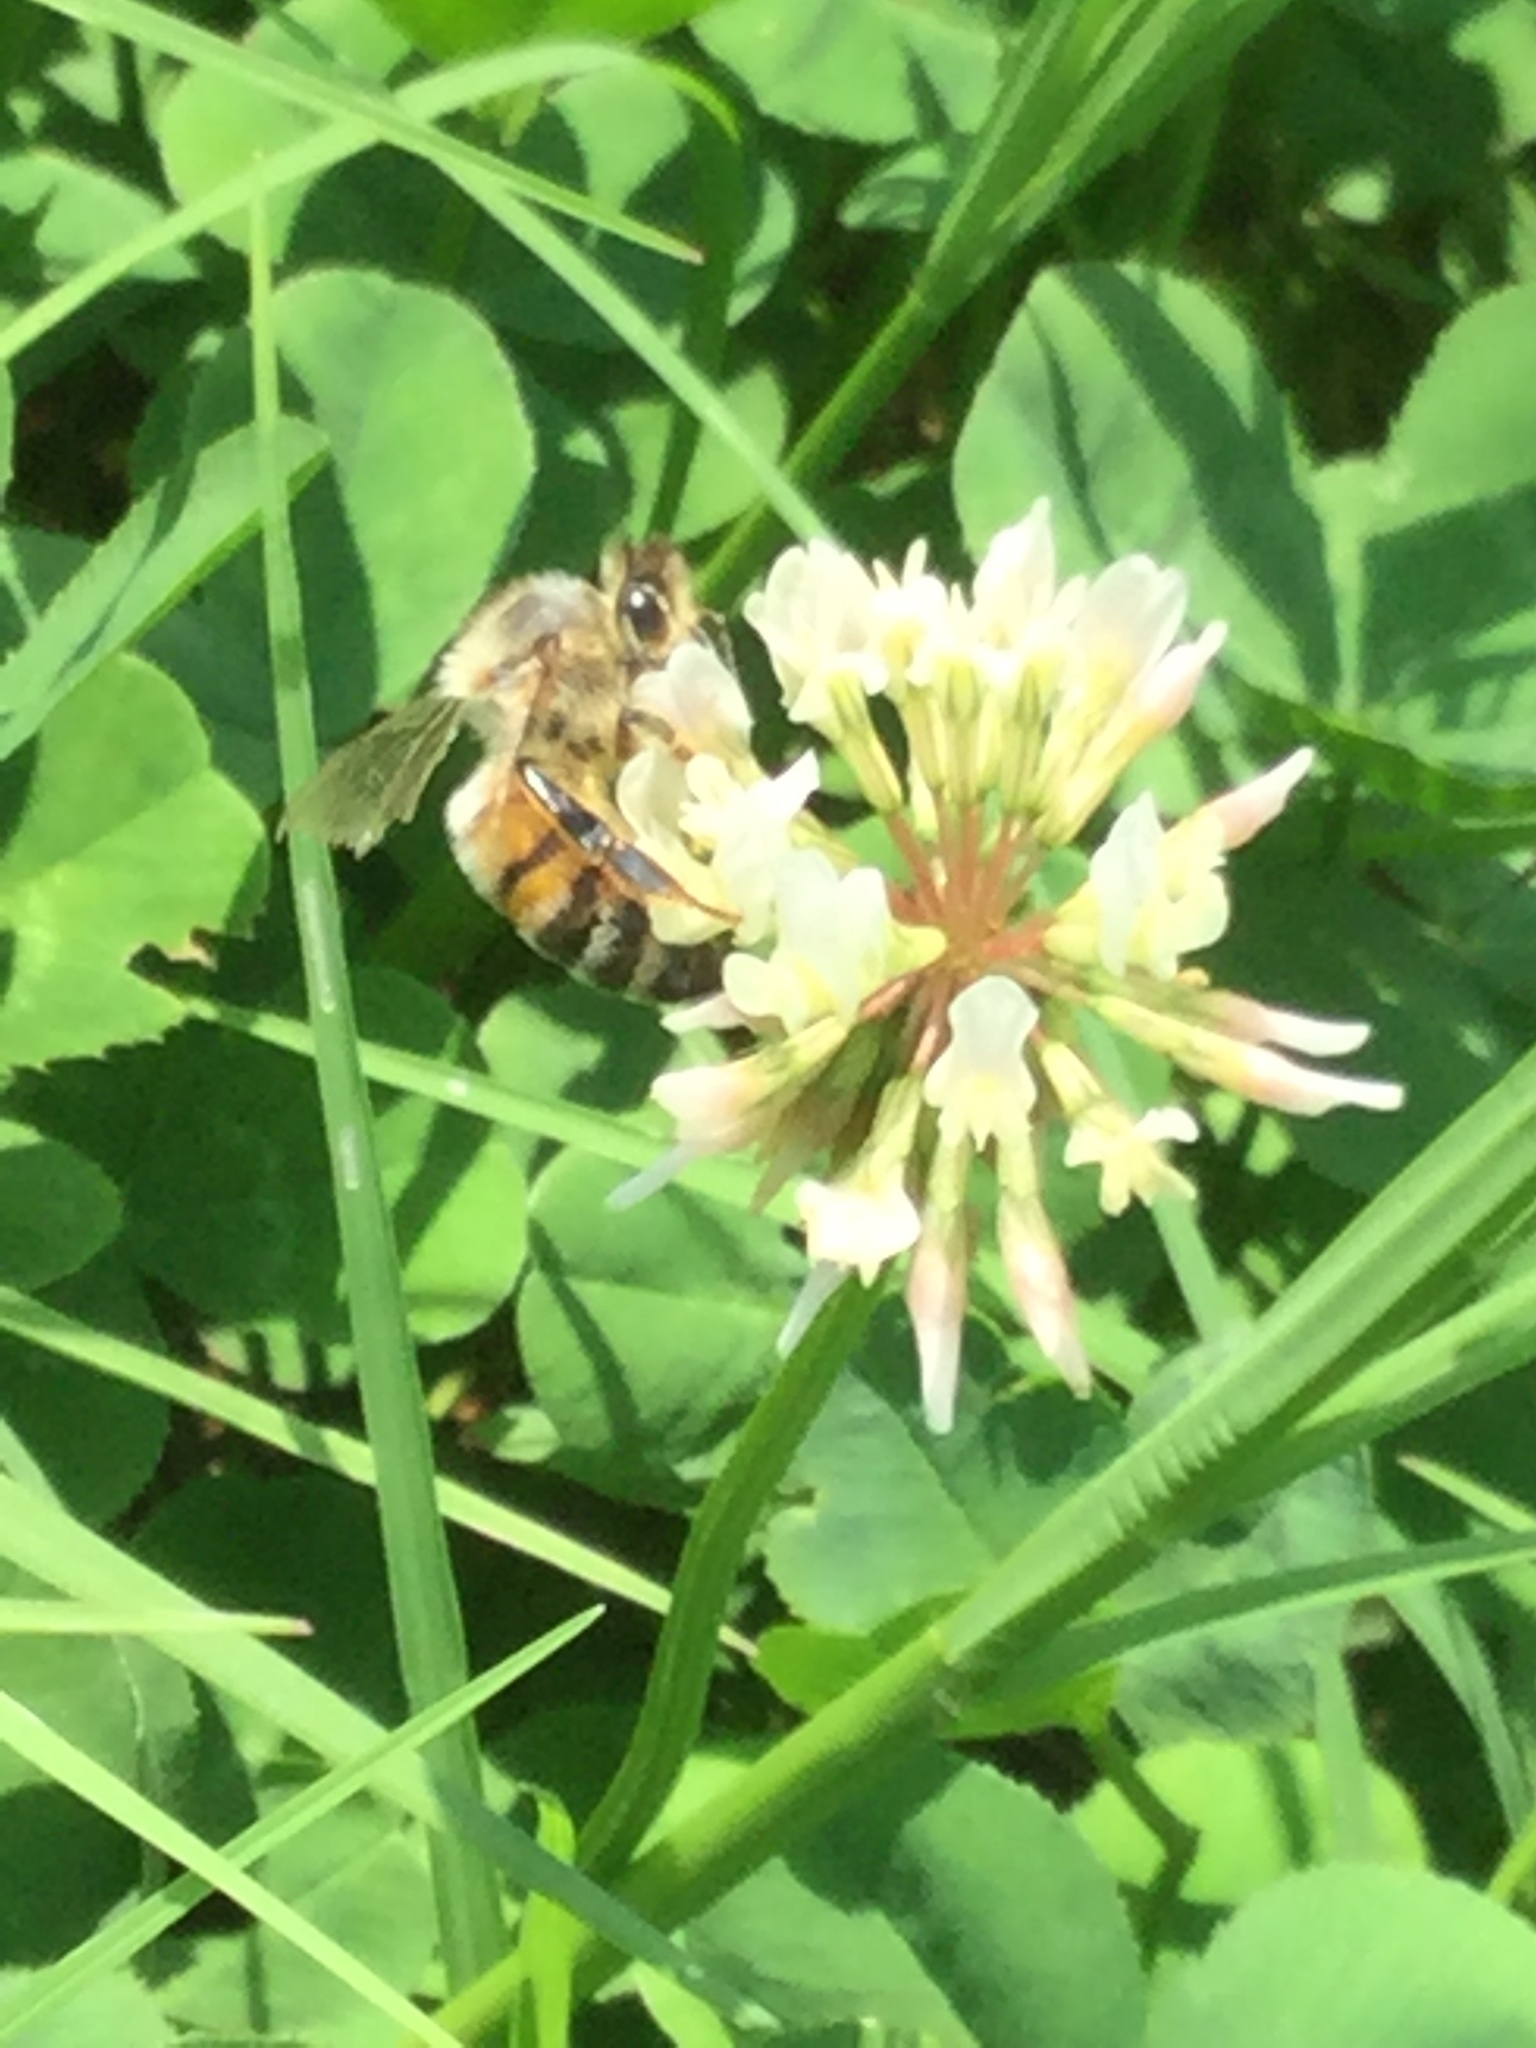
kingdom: Animalia
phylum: Arthropoda
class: Insecta
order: Hymenoptera
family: Apidae
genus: Apis
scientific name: Apis mellifera
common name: Honey bee
